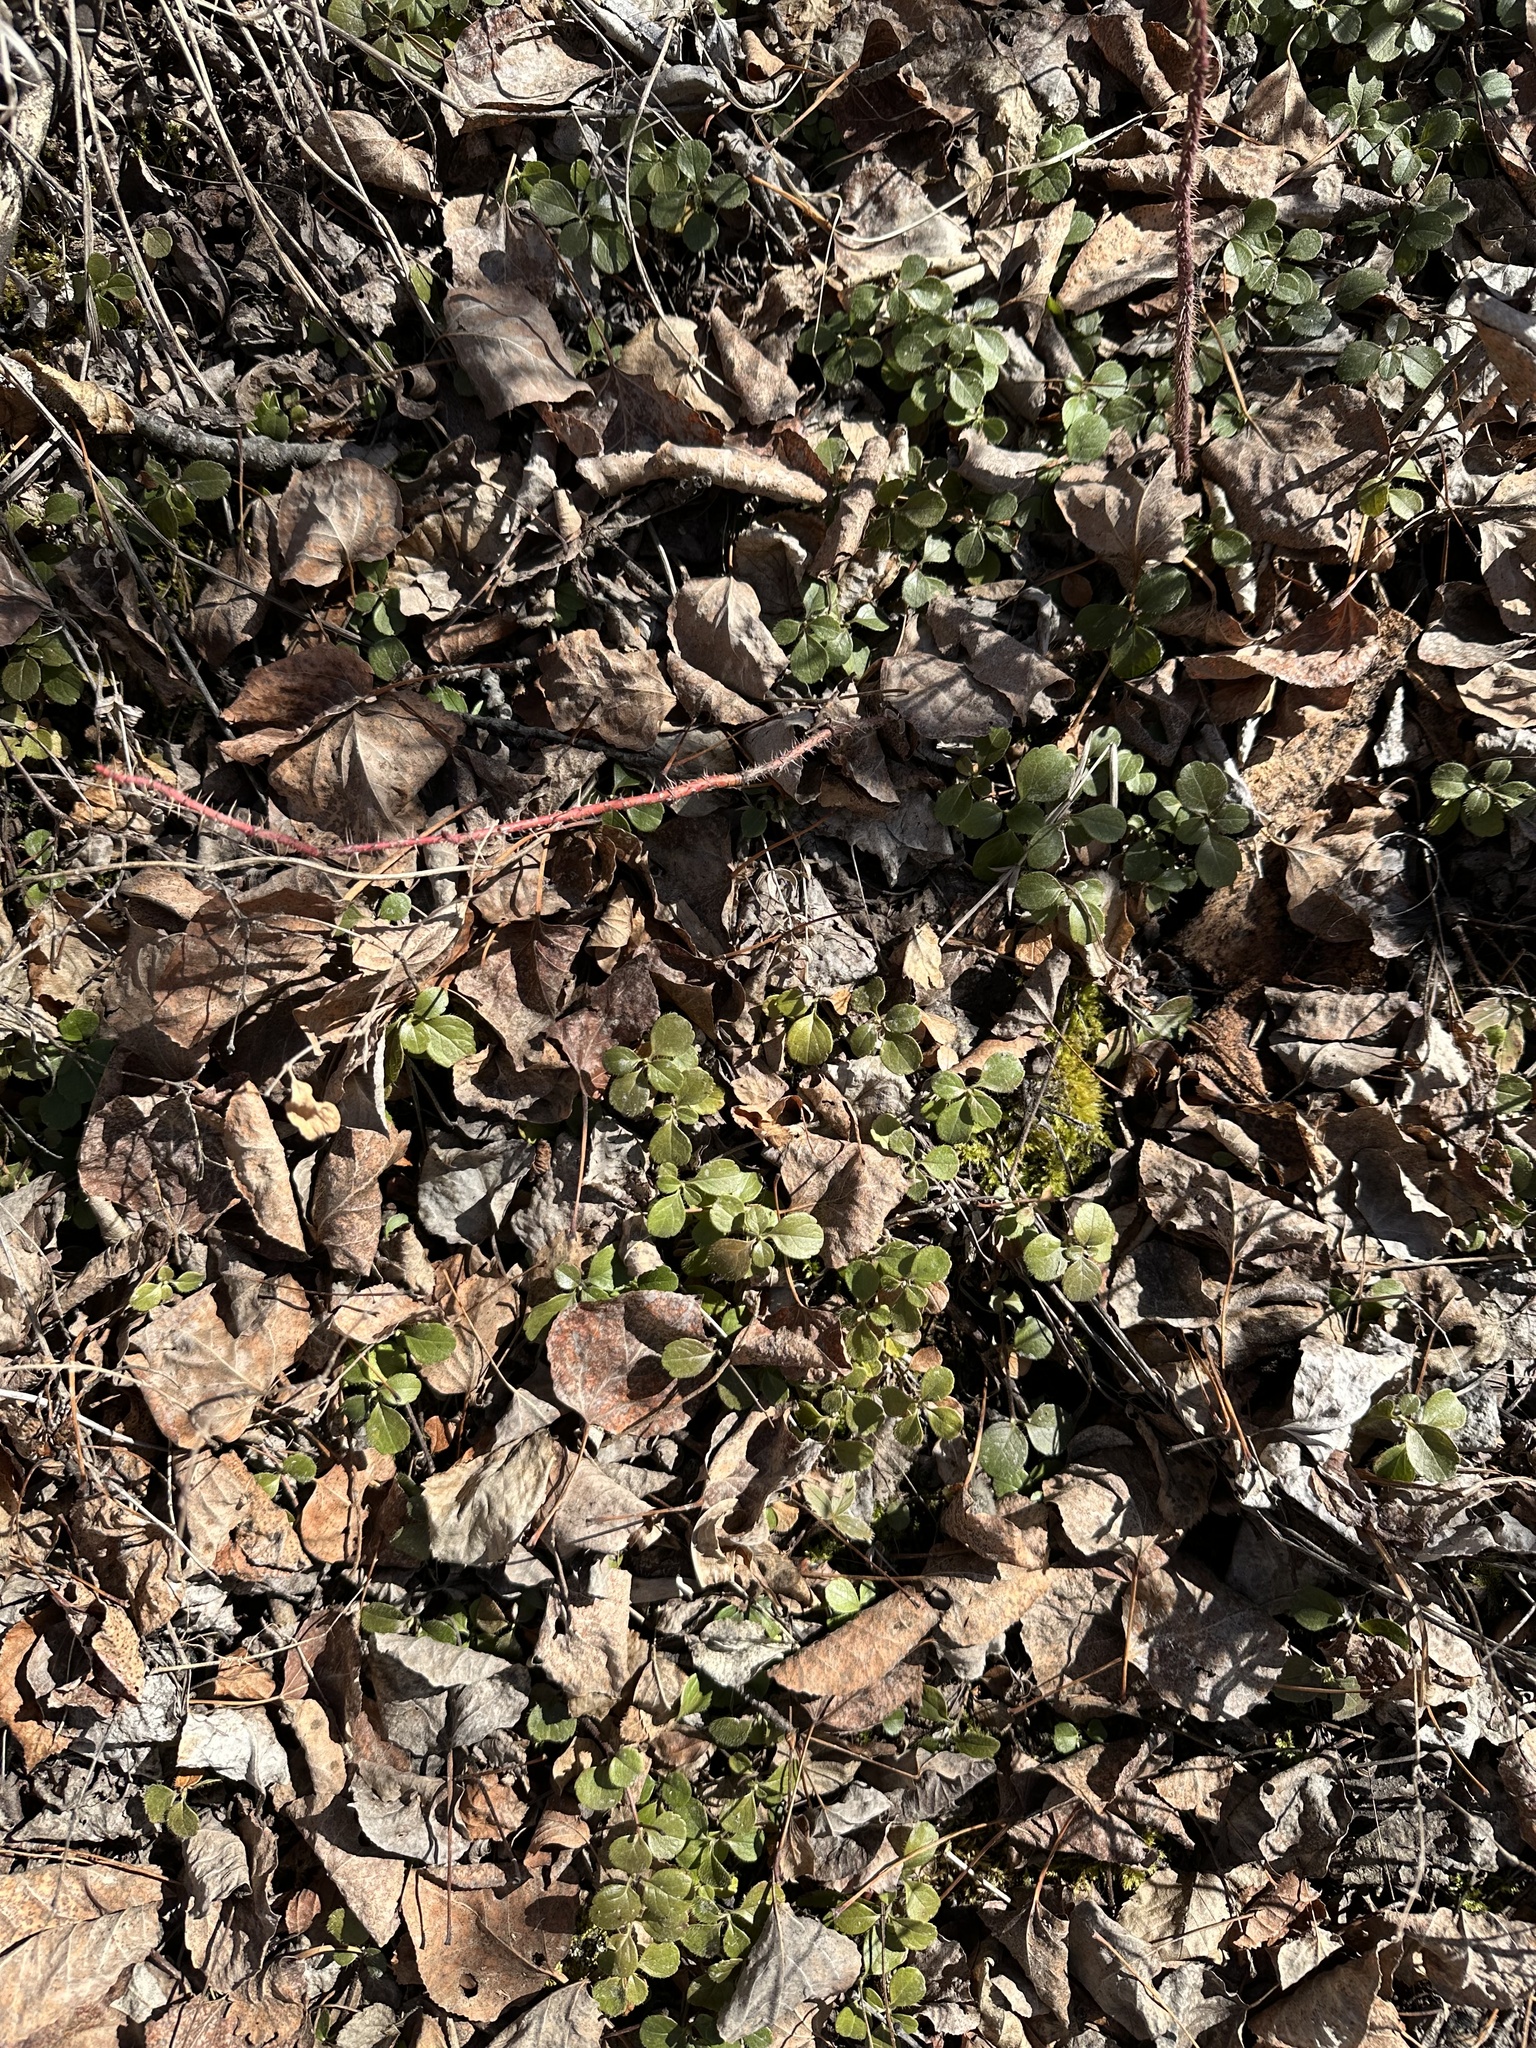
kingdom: Plantae
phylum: Tracheophyta
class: Magnoliopsida
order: Dipsacales
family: Caprifoliaceae
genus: Linnaea
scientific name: Linnaea borealis
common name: Twinflower
